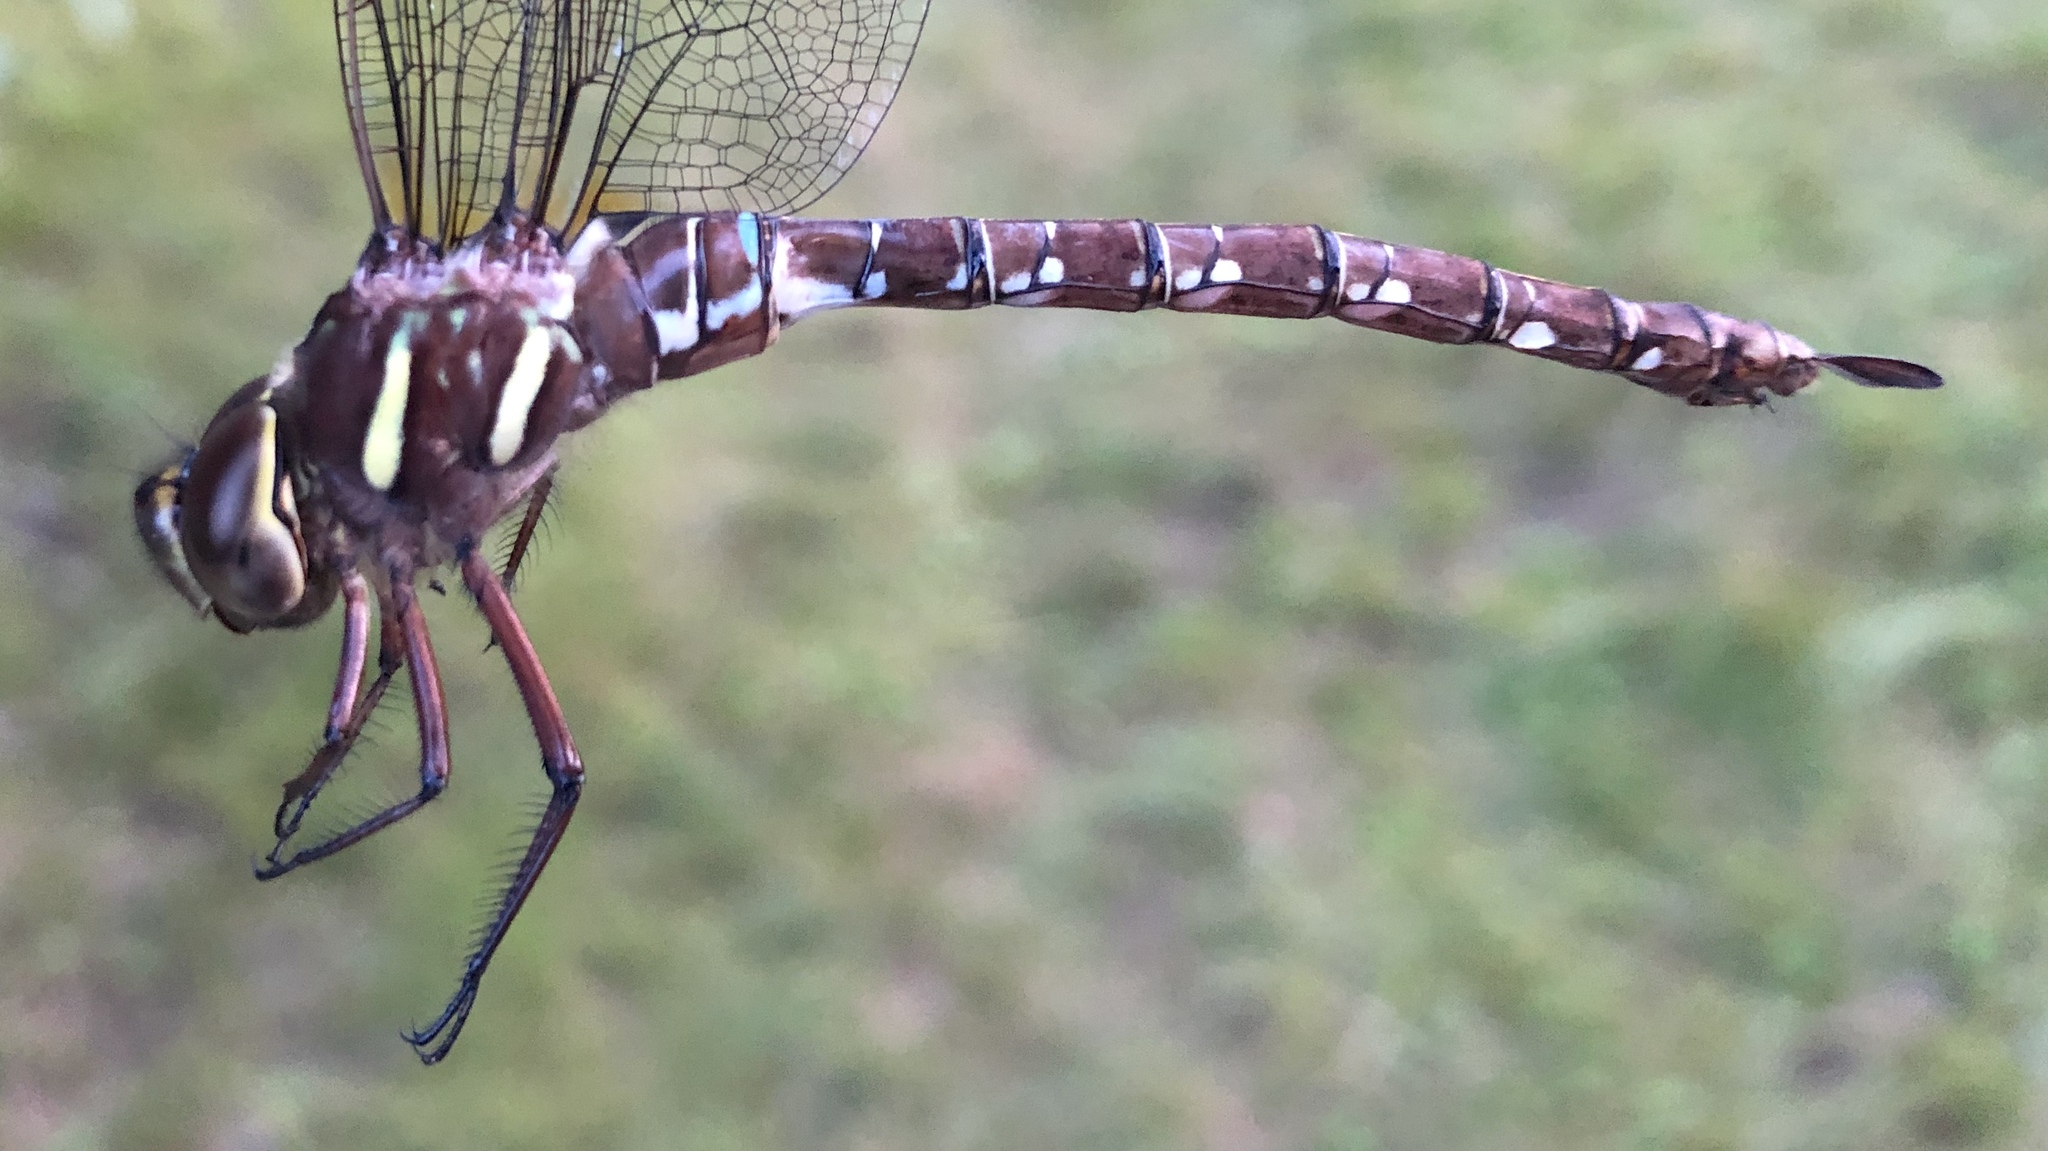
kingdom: Animalia
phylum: Arthropoda
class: Insecta
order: Odonata
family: Aeshnidae
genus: Aeshna
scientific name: Aeshna umbrosa
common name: Shadow darner
